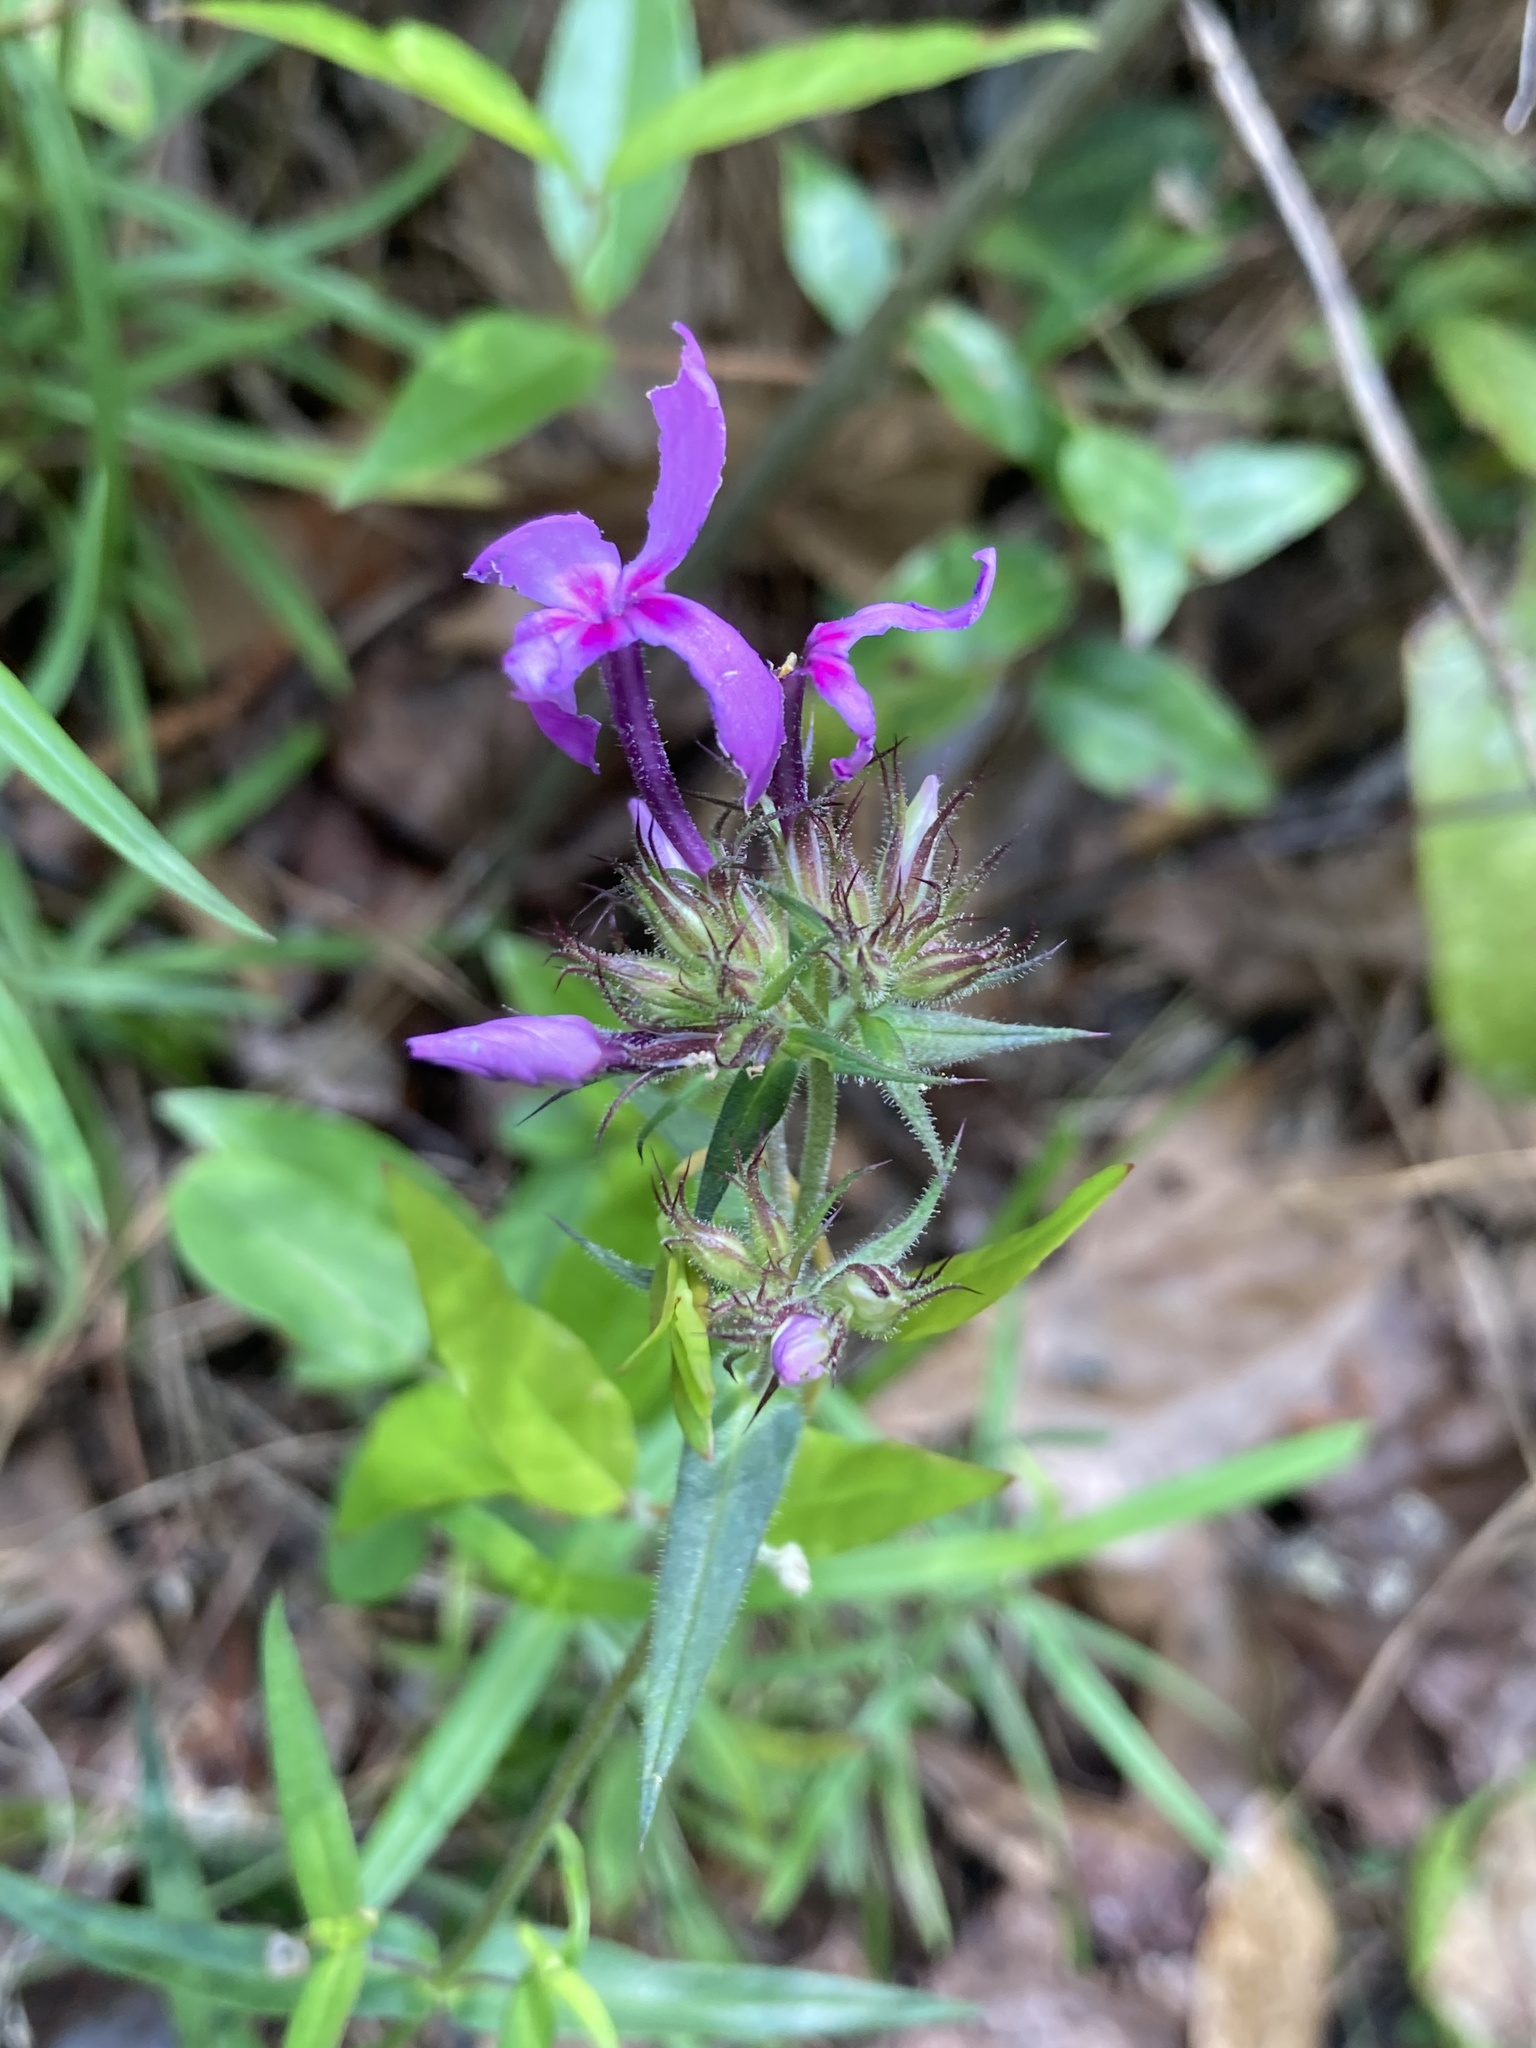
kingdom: Plantae
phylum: Tracheophyta
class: Magnoliopsida
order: Ericales
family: Polemoniaceae
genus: Phlox
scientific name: Phlox pilosa
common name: Prairie phlox
